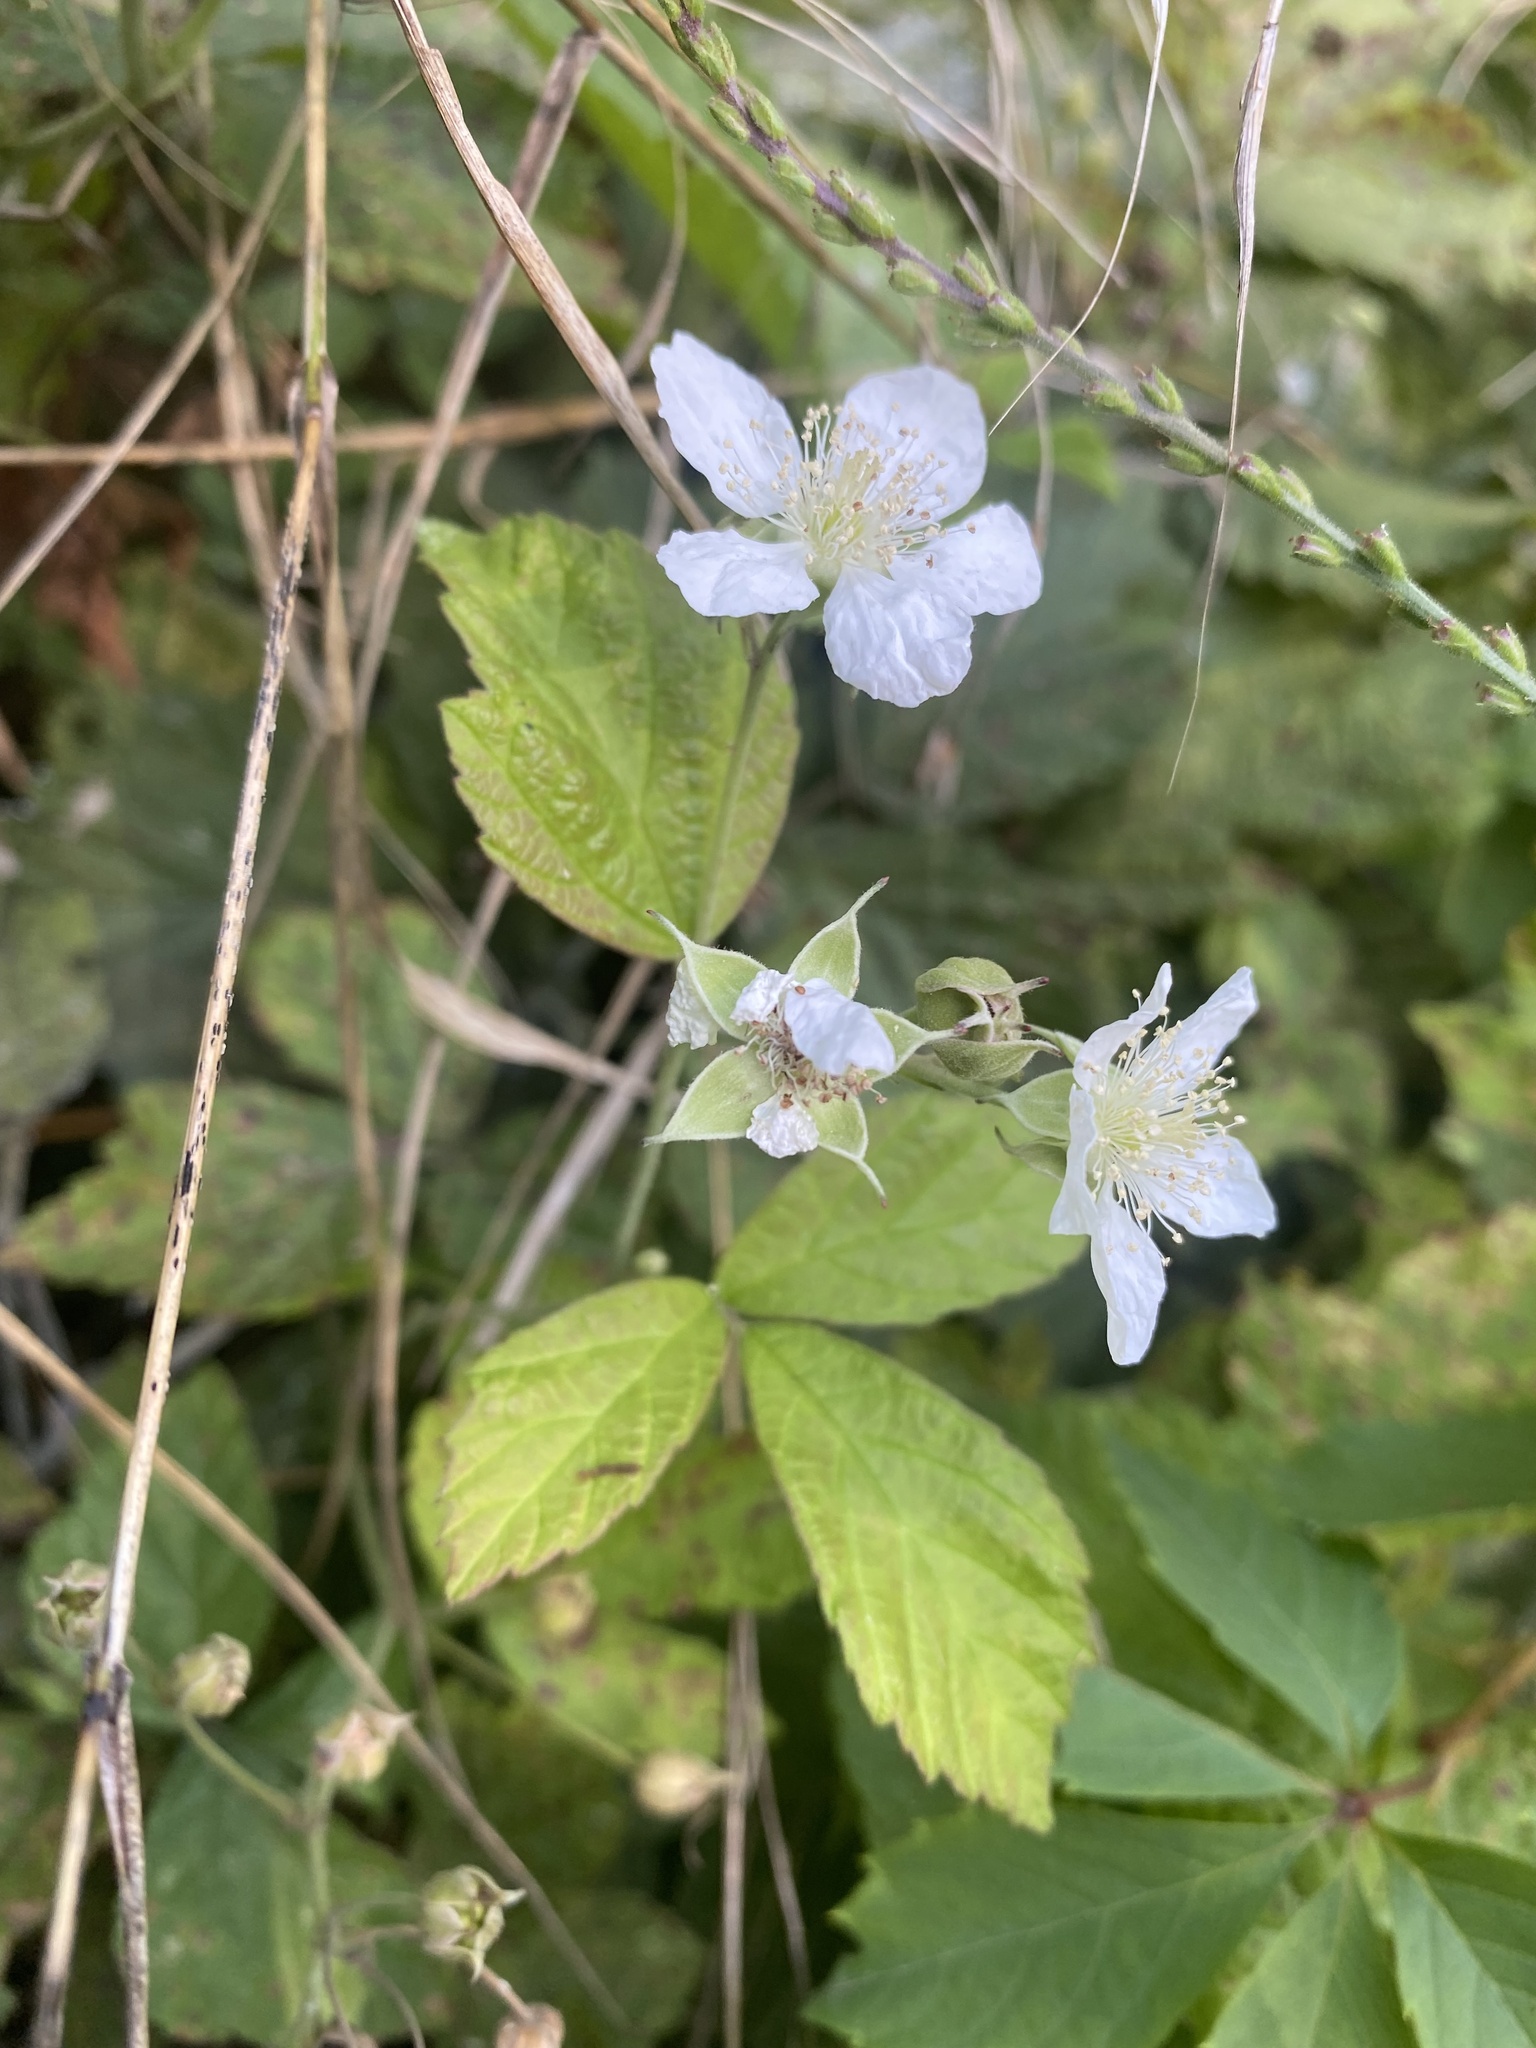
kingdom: Plantae
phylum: Tracheophyta
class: Magnoliopsida
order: Rosales
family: Rosaceae
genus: Rubus
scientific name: Rubus caesius
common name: Dewberry
